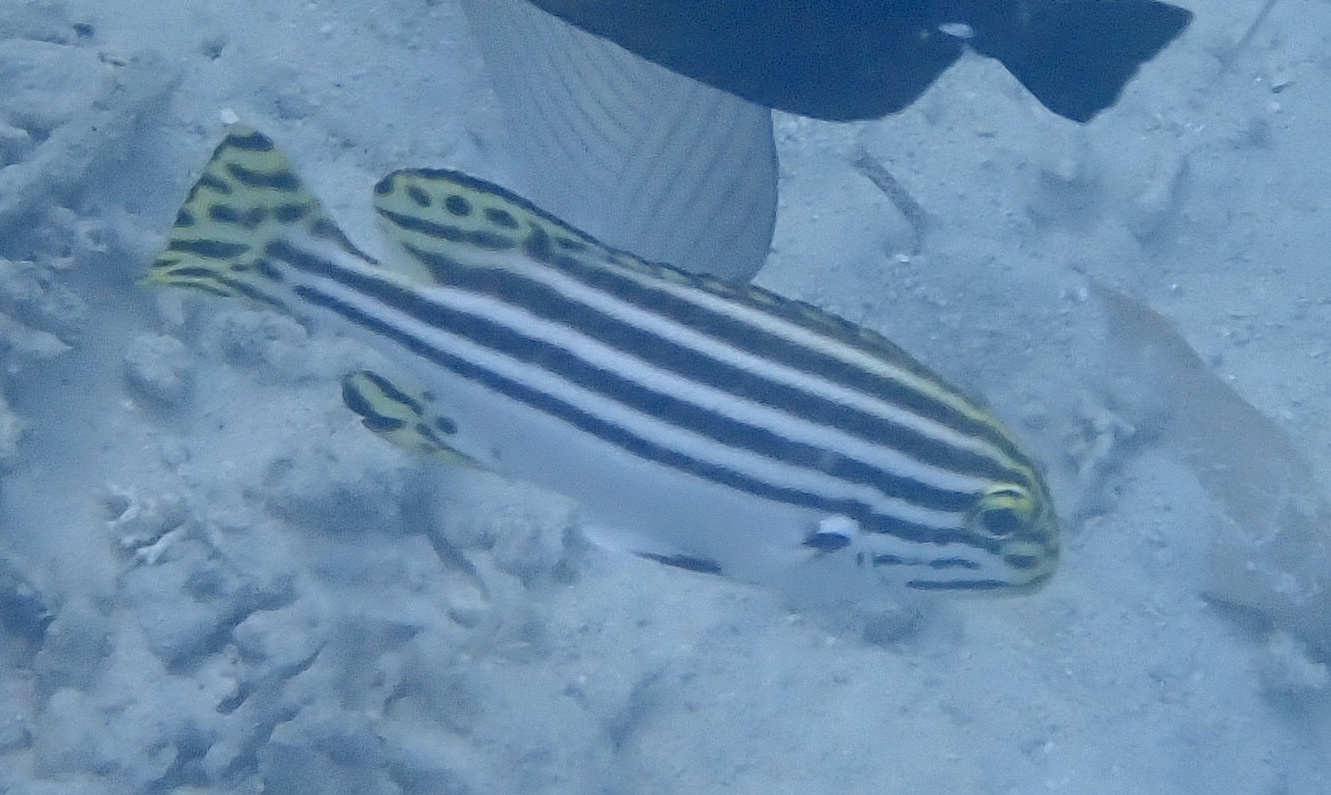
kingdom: Animalia
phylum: Chordata
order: Perciformes
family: Haemulidae
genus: Plectorhinchus
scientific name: Plectorhinchus lessonii
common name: Lesson's thicklip
